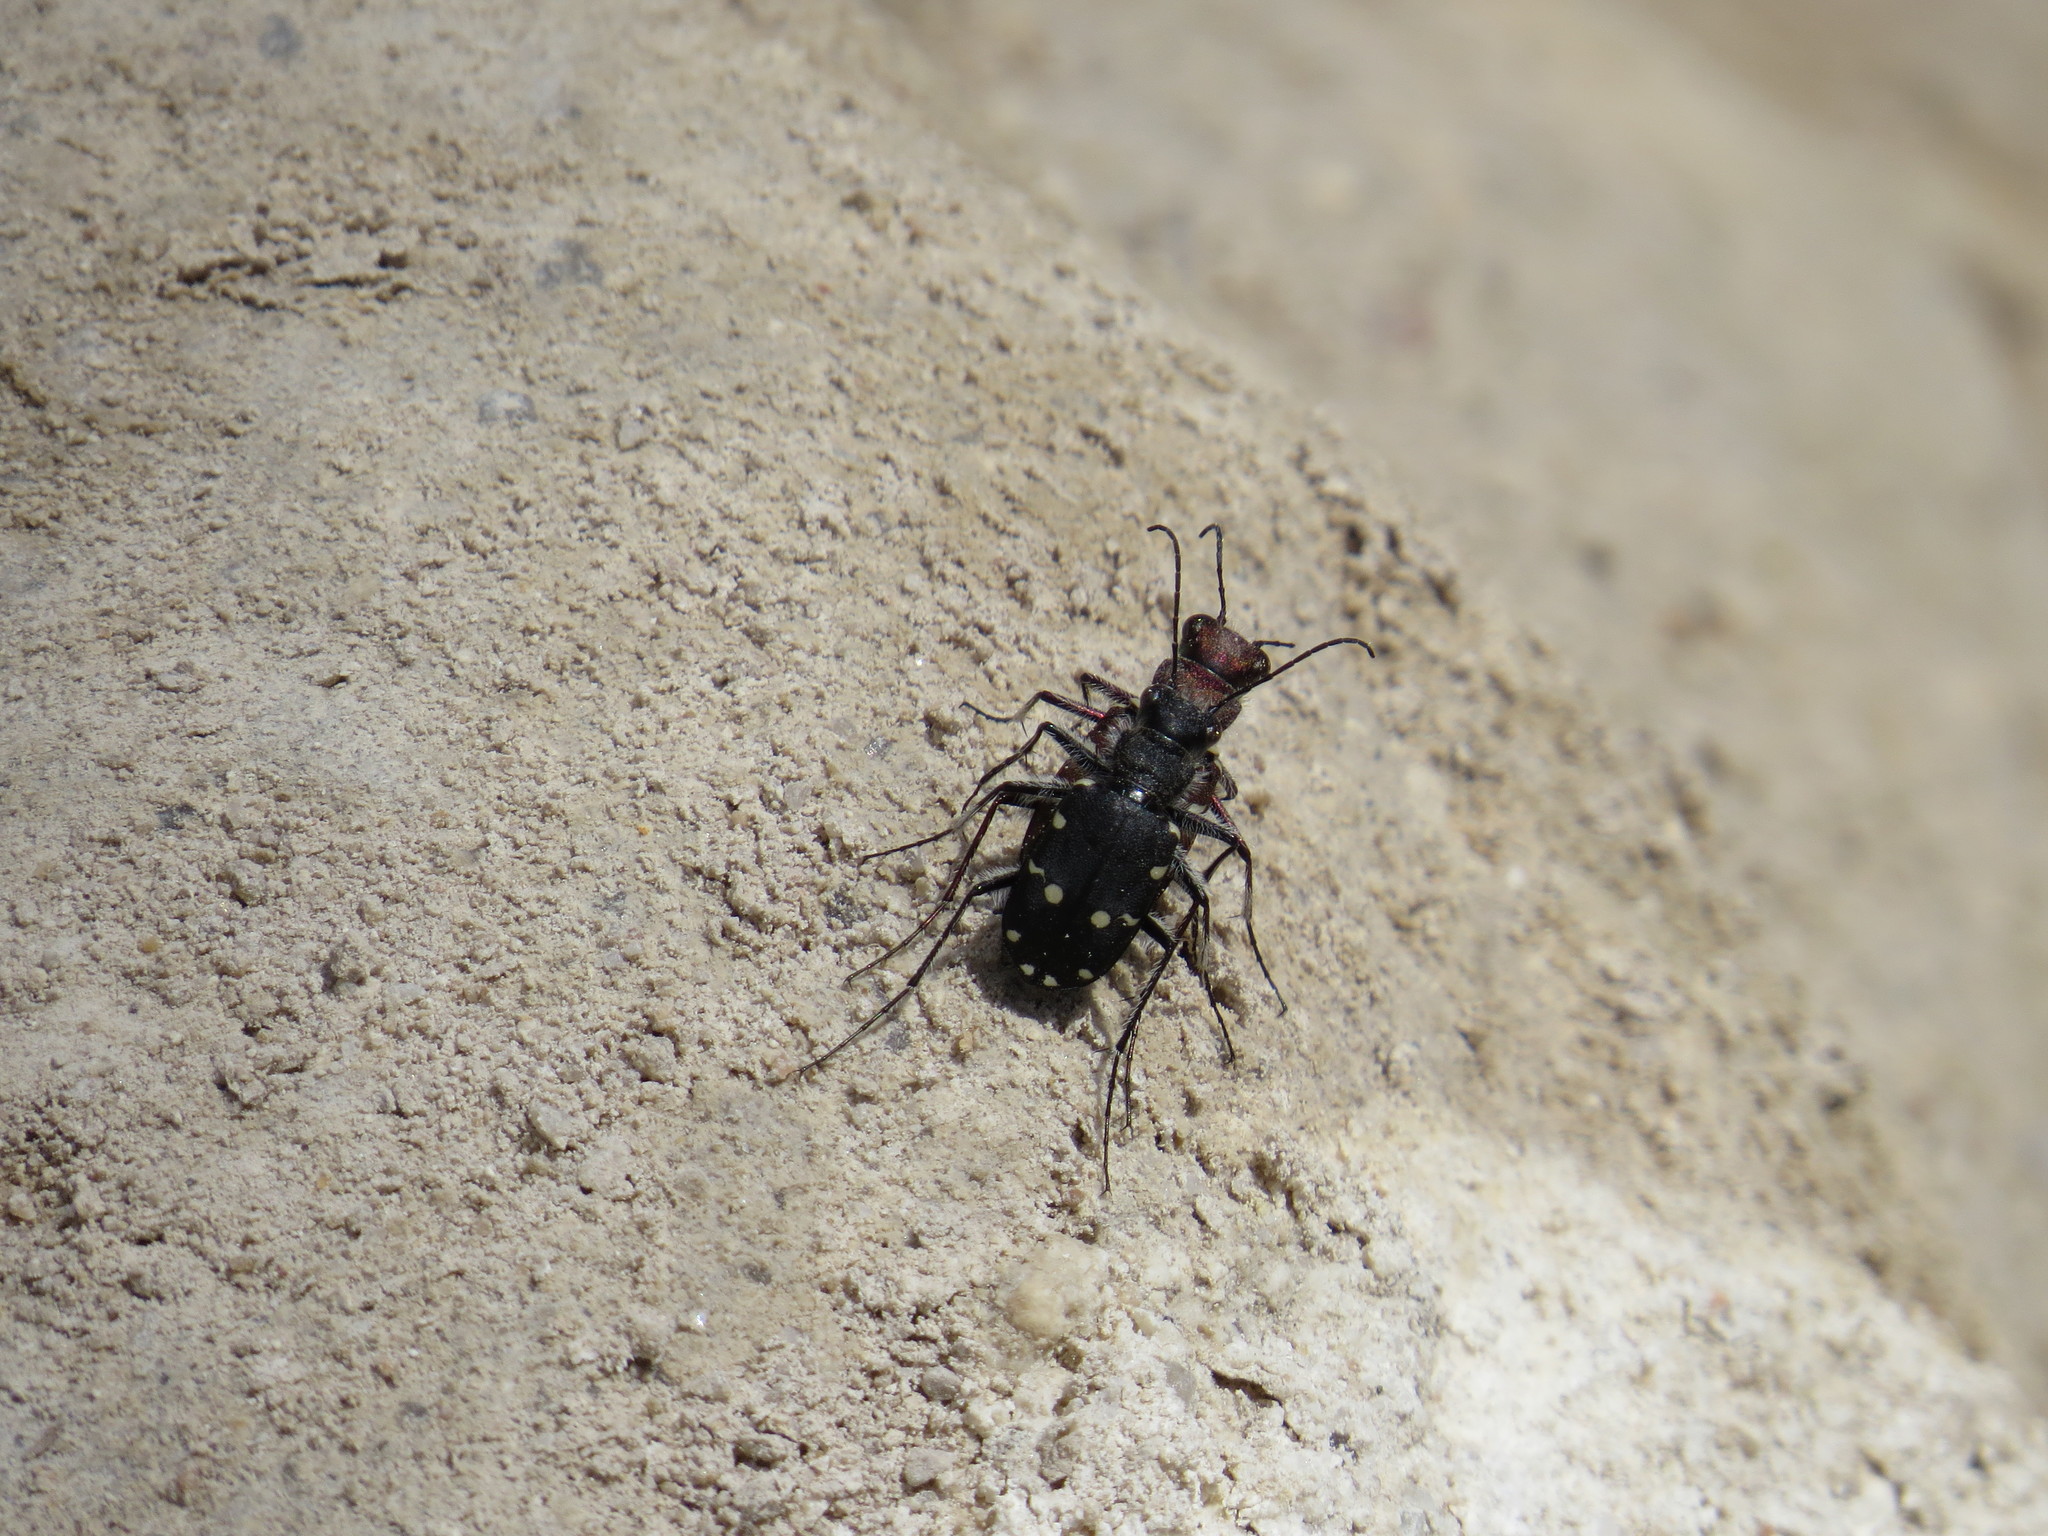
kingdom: Animalia
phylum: Arthropoda
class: Insecta
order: Coleoptera
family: Carabidae
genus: Cicindela
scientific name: Cicindela campestris
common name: Common tiger beetle
